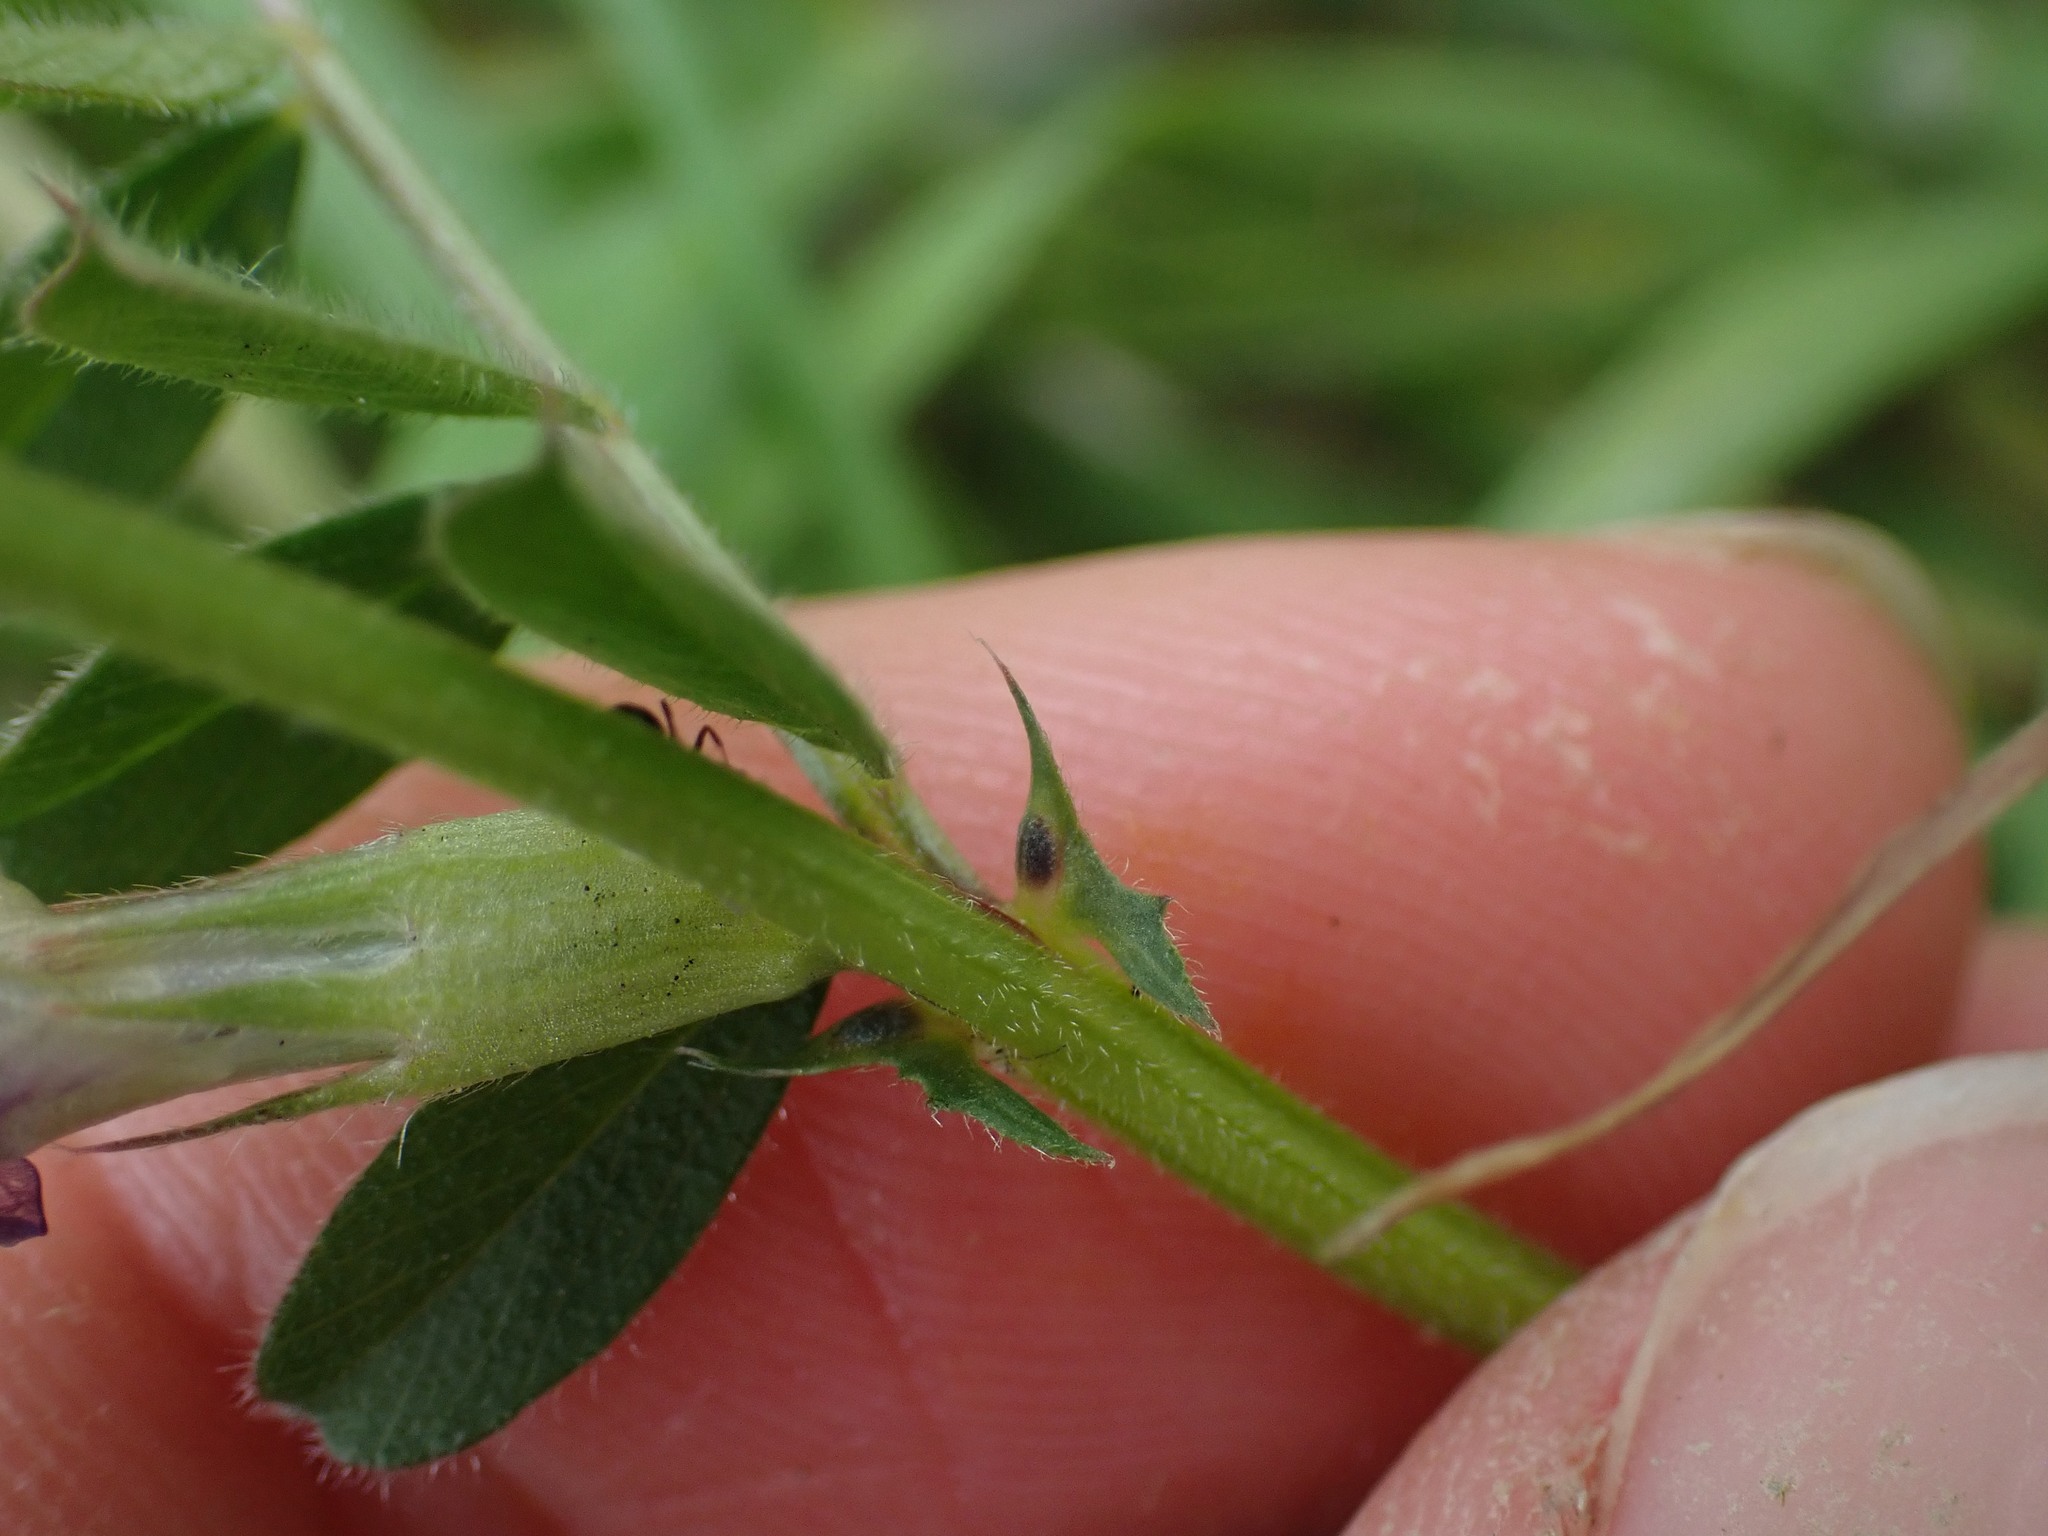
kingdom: Plantae
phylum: Tracheophyta
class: Magnoliopsida
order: Fabales
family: Fabaceae
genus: Vicia
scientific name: Vicia sativa
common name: Garden vetch
